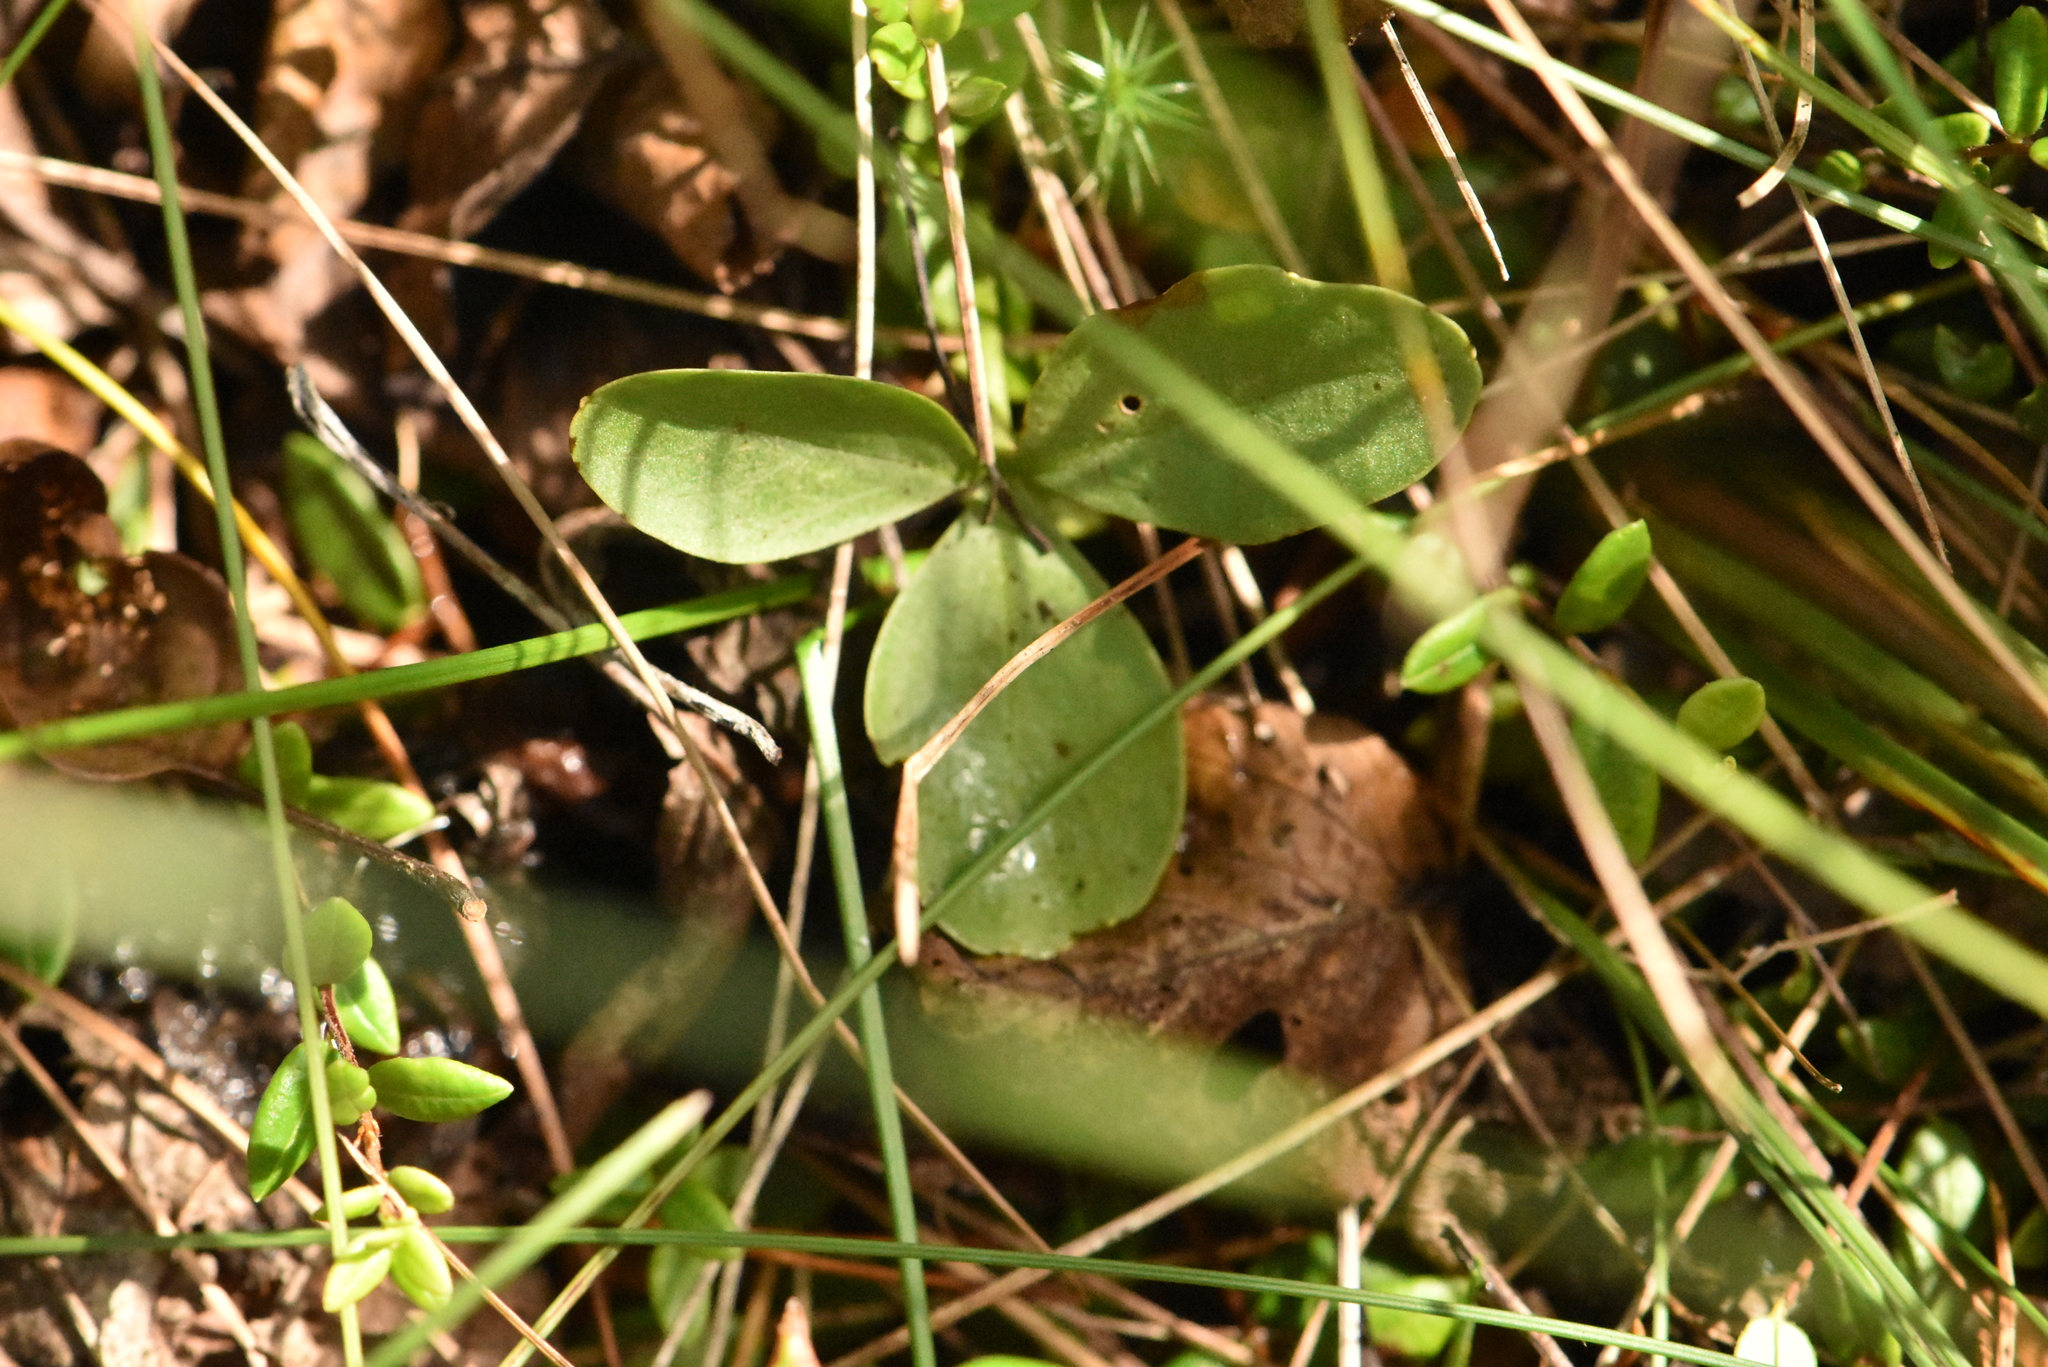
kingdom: Plantae
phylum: Tracheophyta
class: Magnoliopsida
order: Asterales
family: Menyanthaceae
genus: Menyanthes
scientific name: Menyanthes trifoliata
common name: Bogbean
